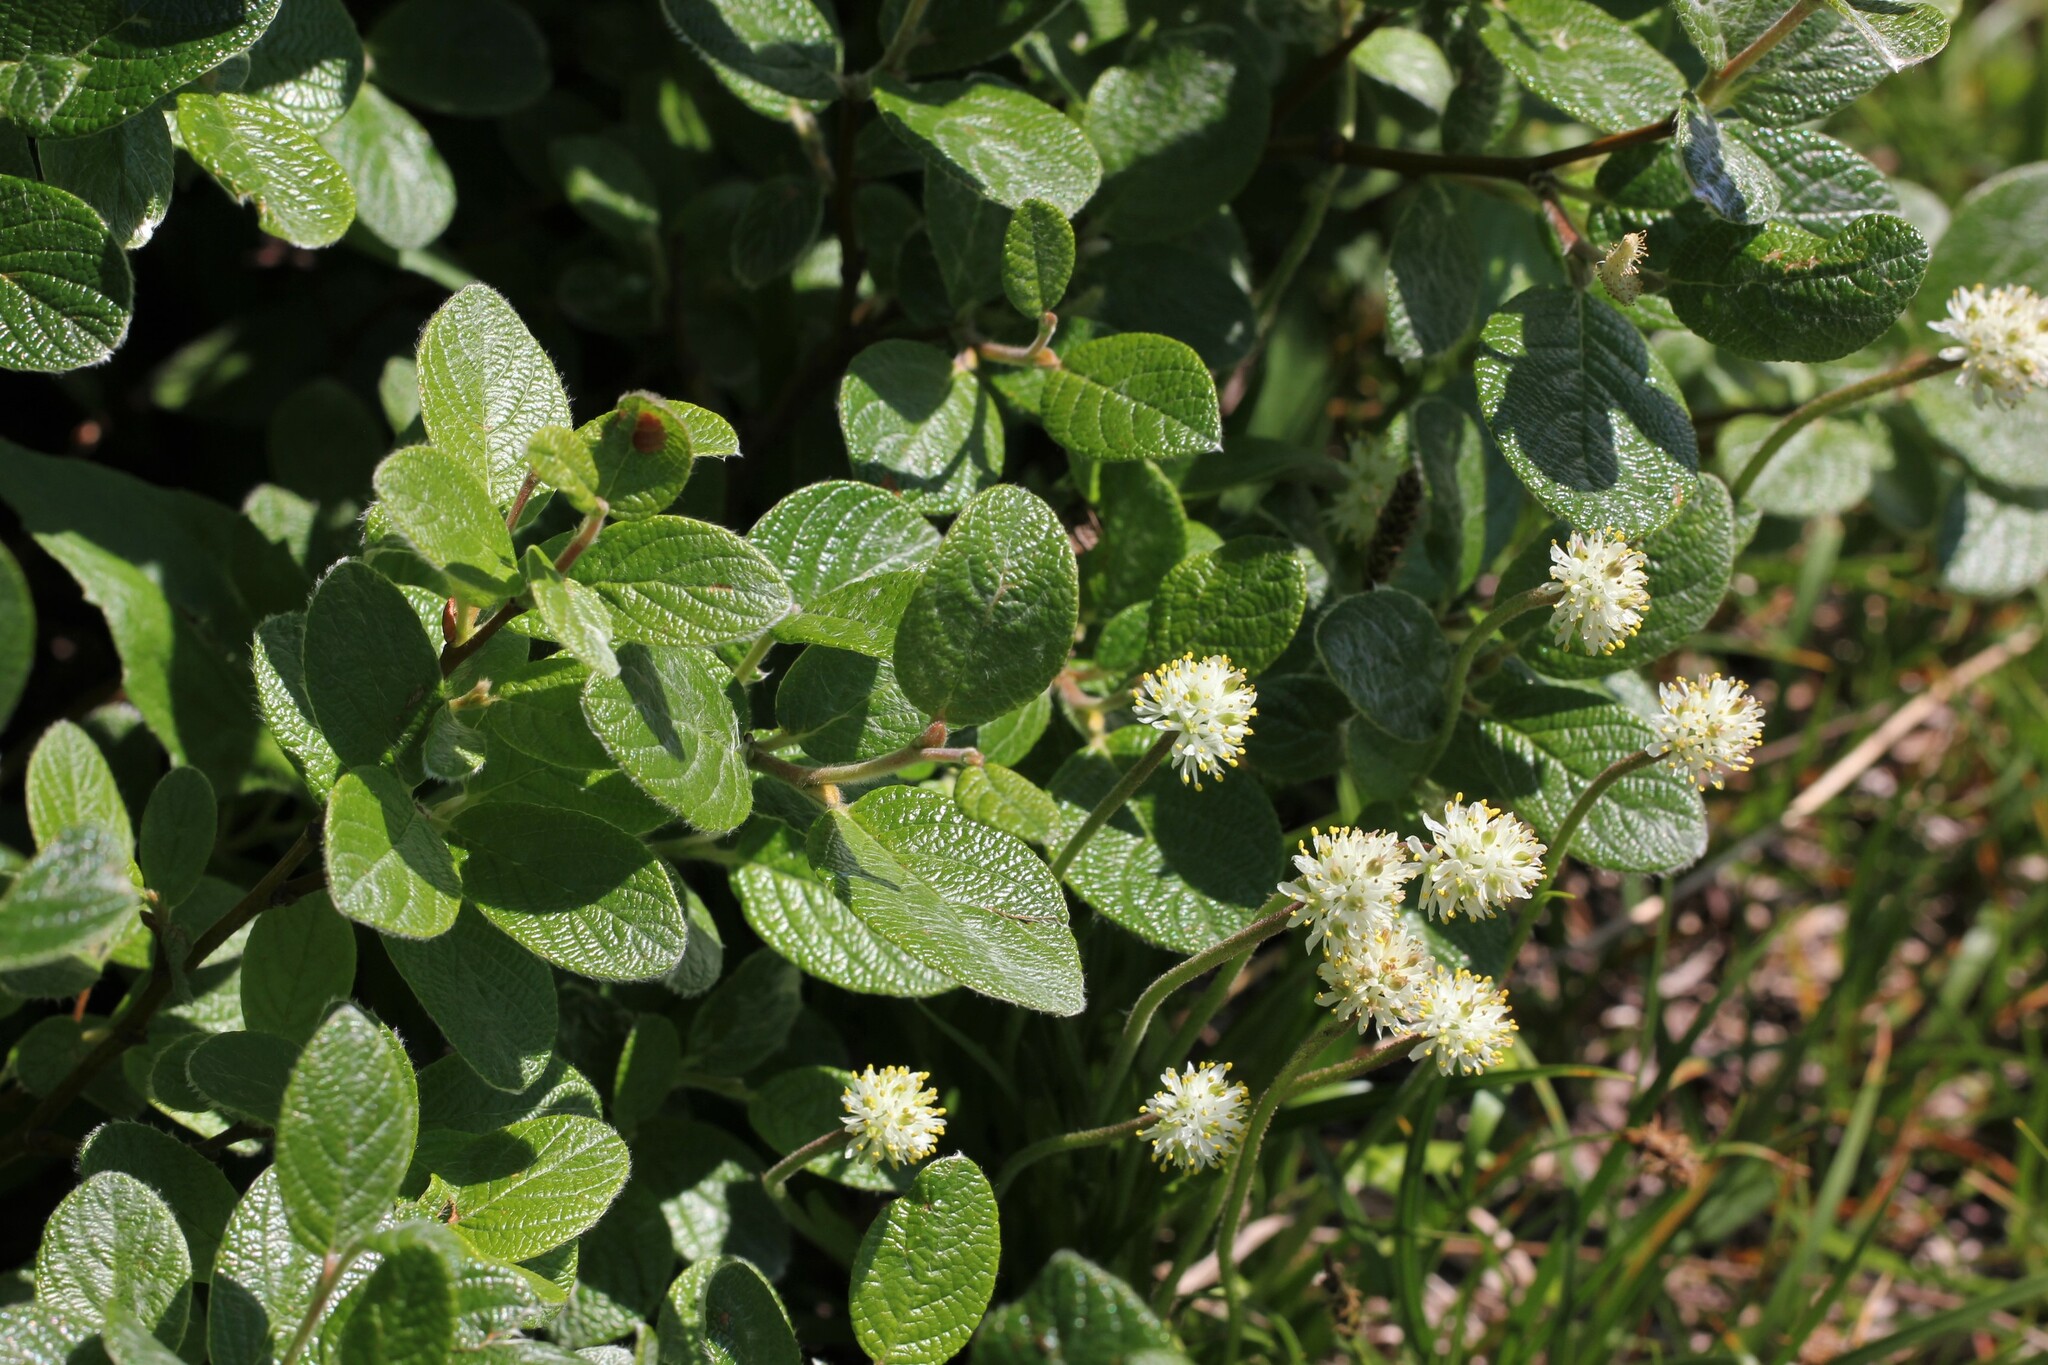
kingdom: Plantae
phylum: Tracheophyta
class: Magnoliopsida
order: Malpighiales
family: Salicaceae
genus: Salix
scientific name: Salix vestita
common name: Hairy willow
